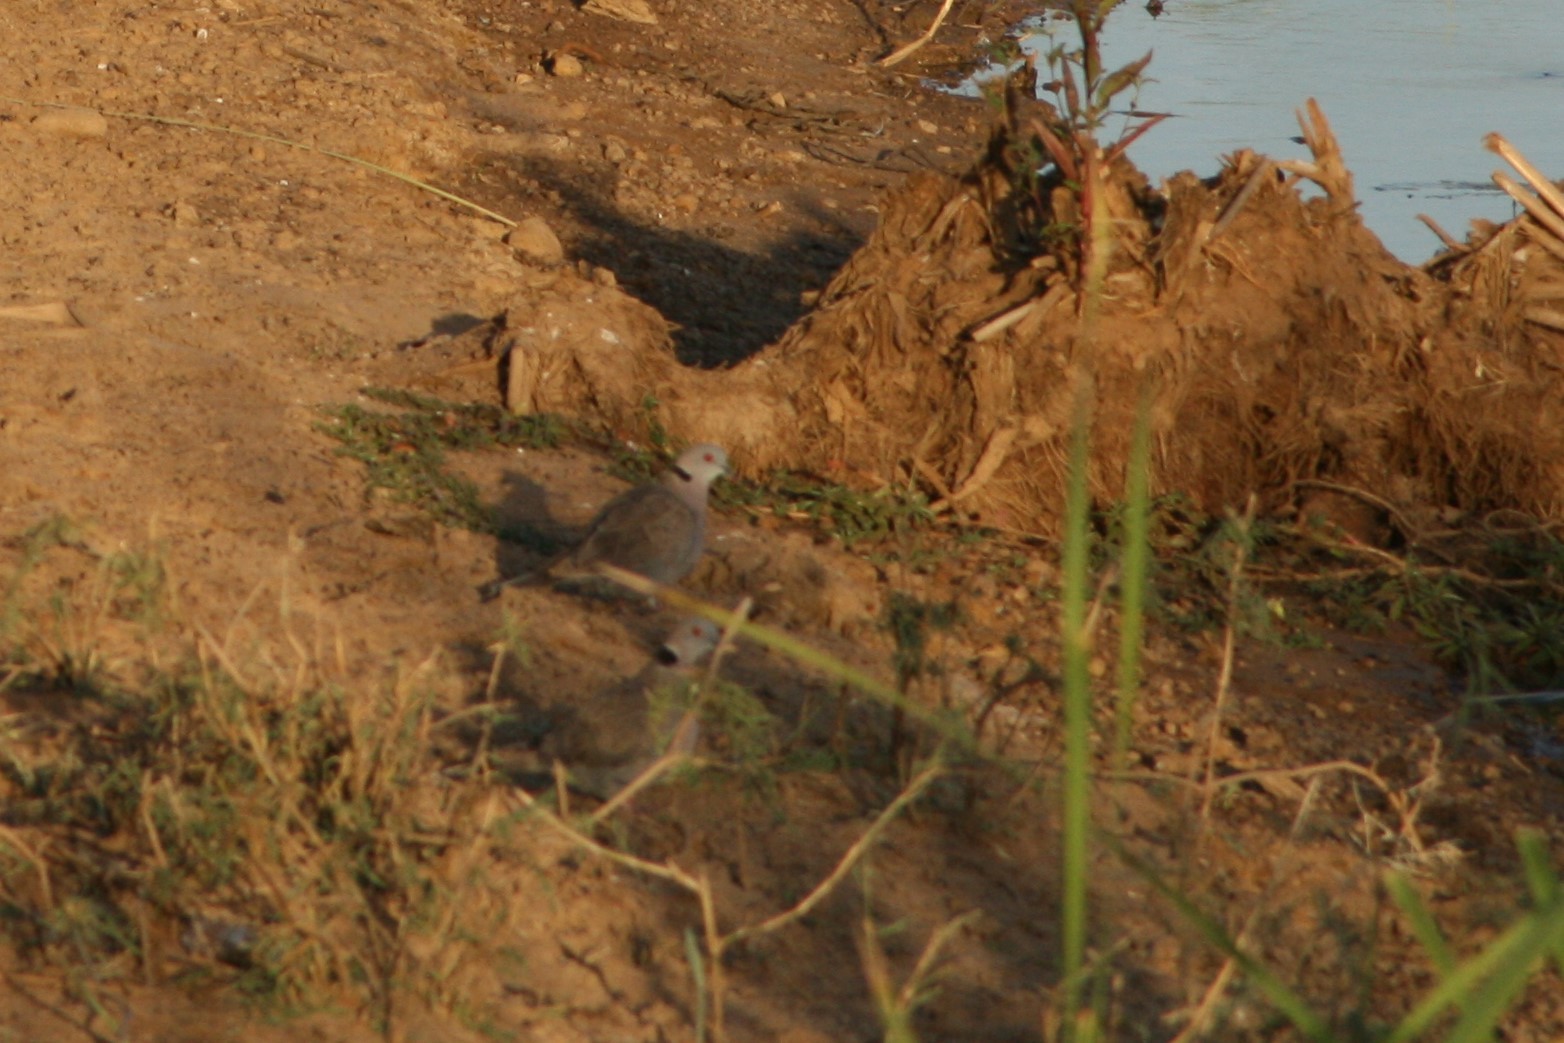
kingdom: Animalia
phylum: Chordata
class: Aves
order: Columbiformes
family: Columbidae
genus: Streptopelia
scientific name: Streptopelia decipiens
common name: Mourning collared dove
